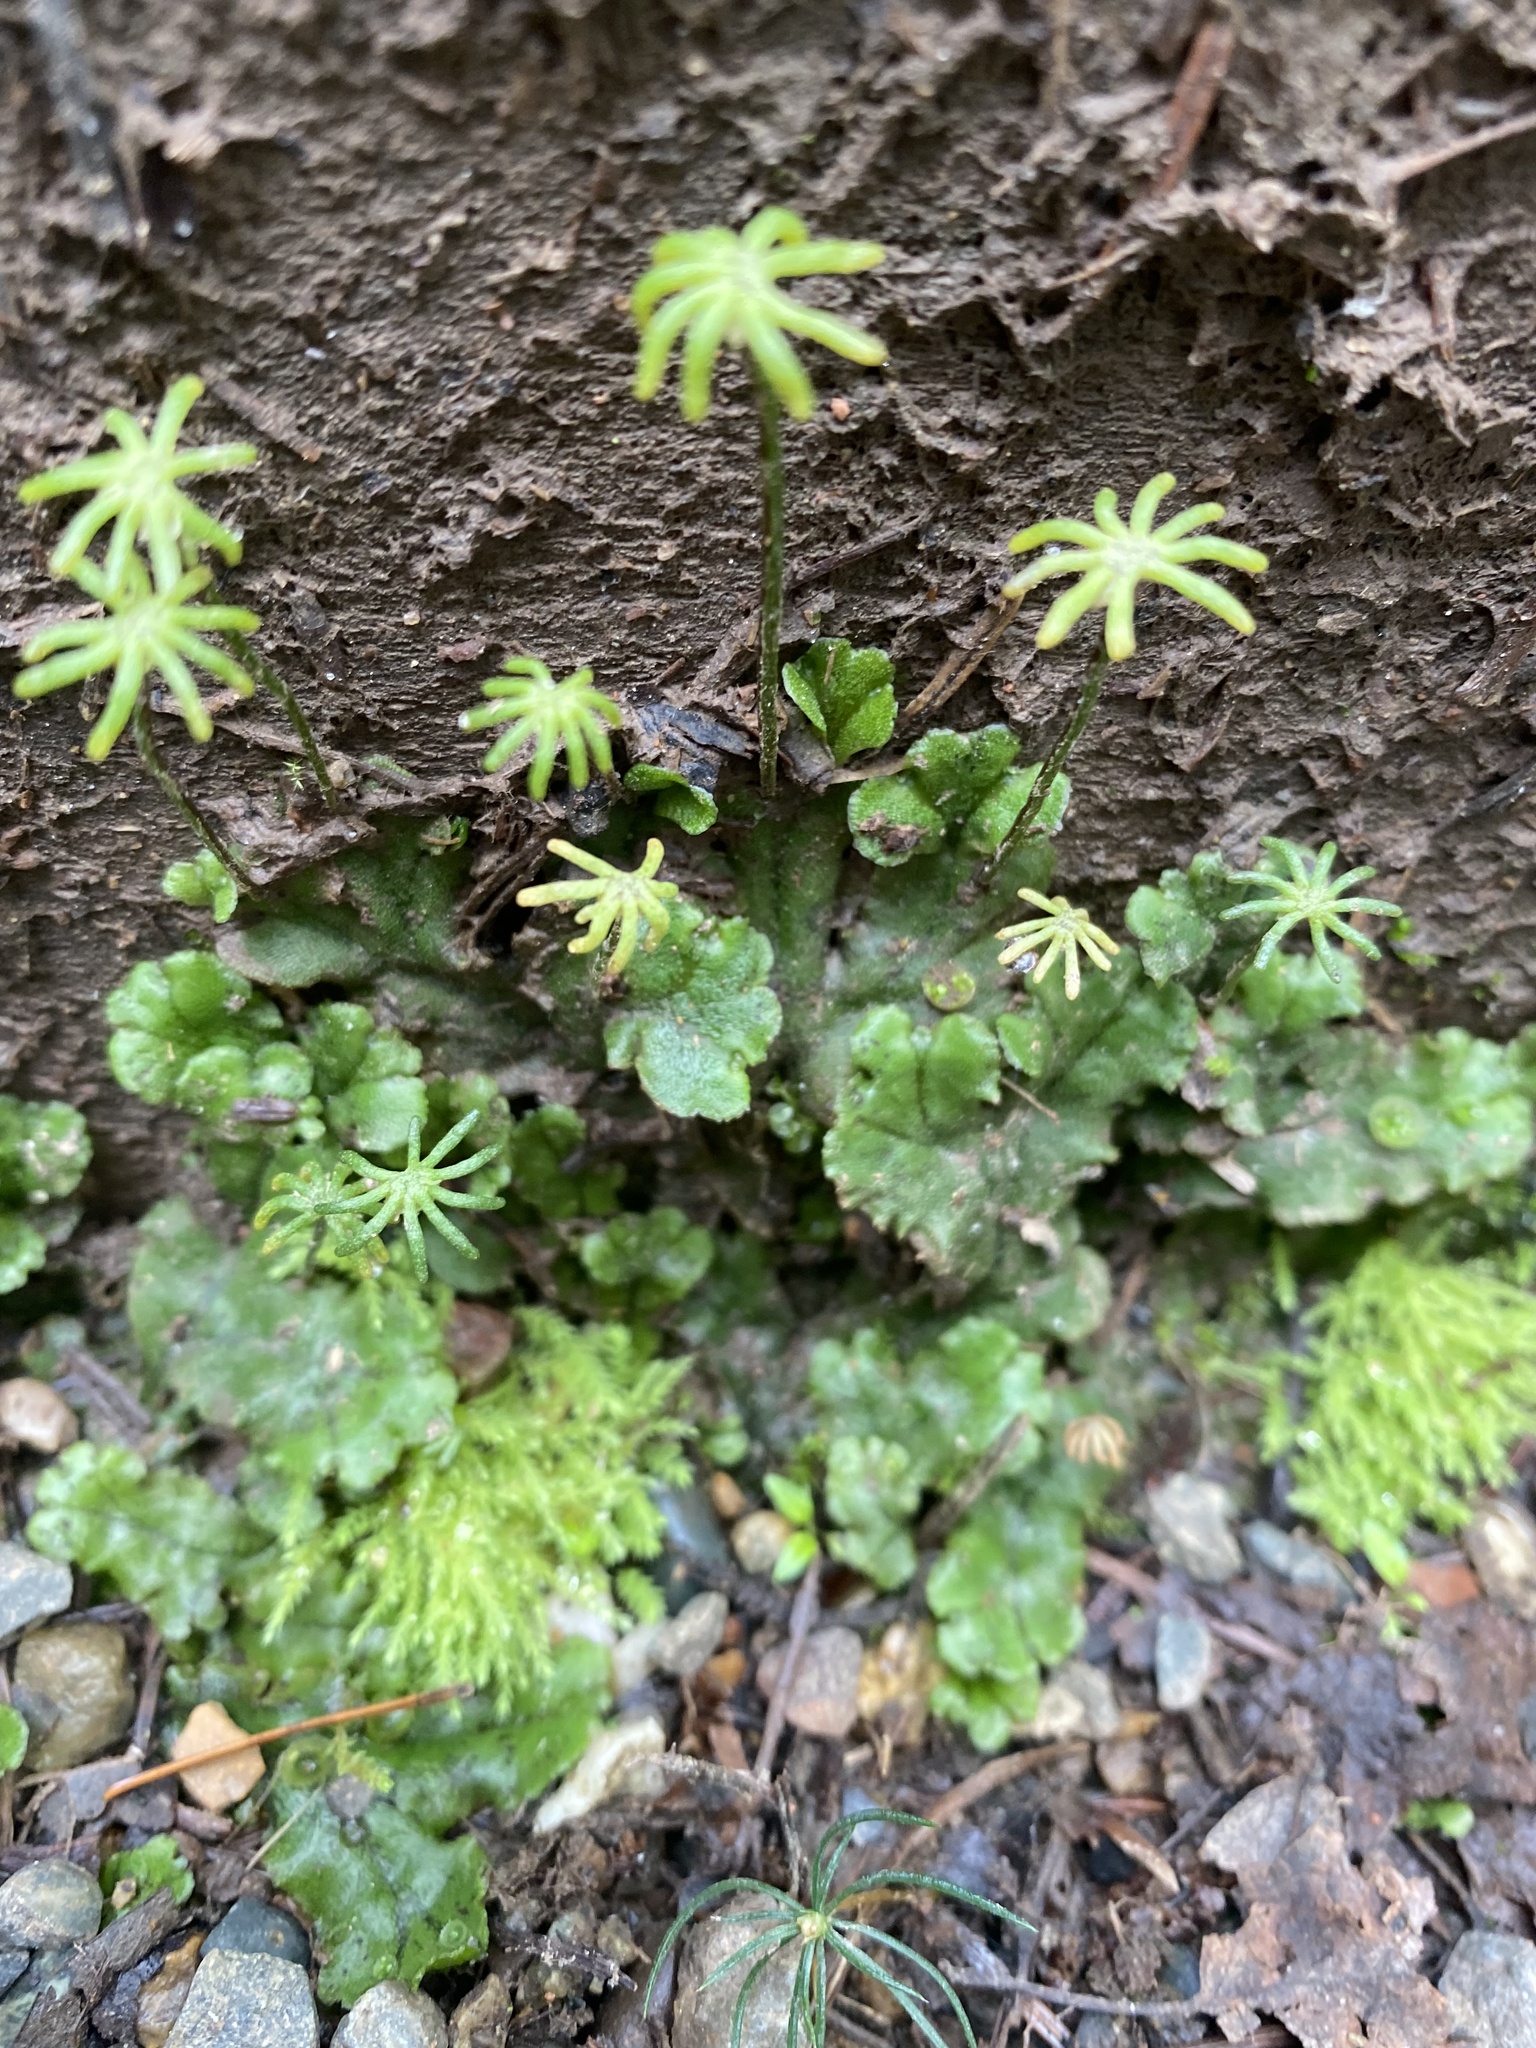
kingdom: Plantae
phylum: Marchantiophyta
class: Marchantiopsida
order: Marchantiales
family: Marchantiaceae
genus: Marchantia
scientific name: Marchantia polymorpha
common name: Common liverwort
